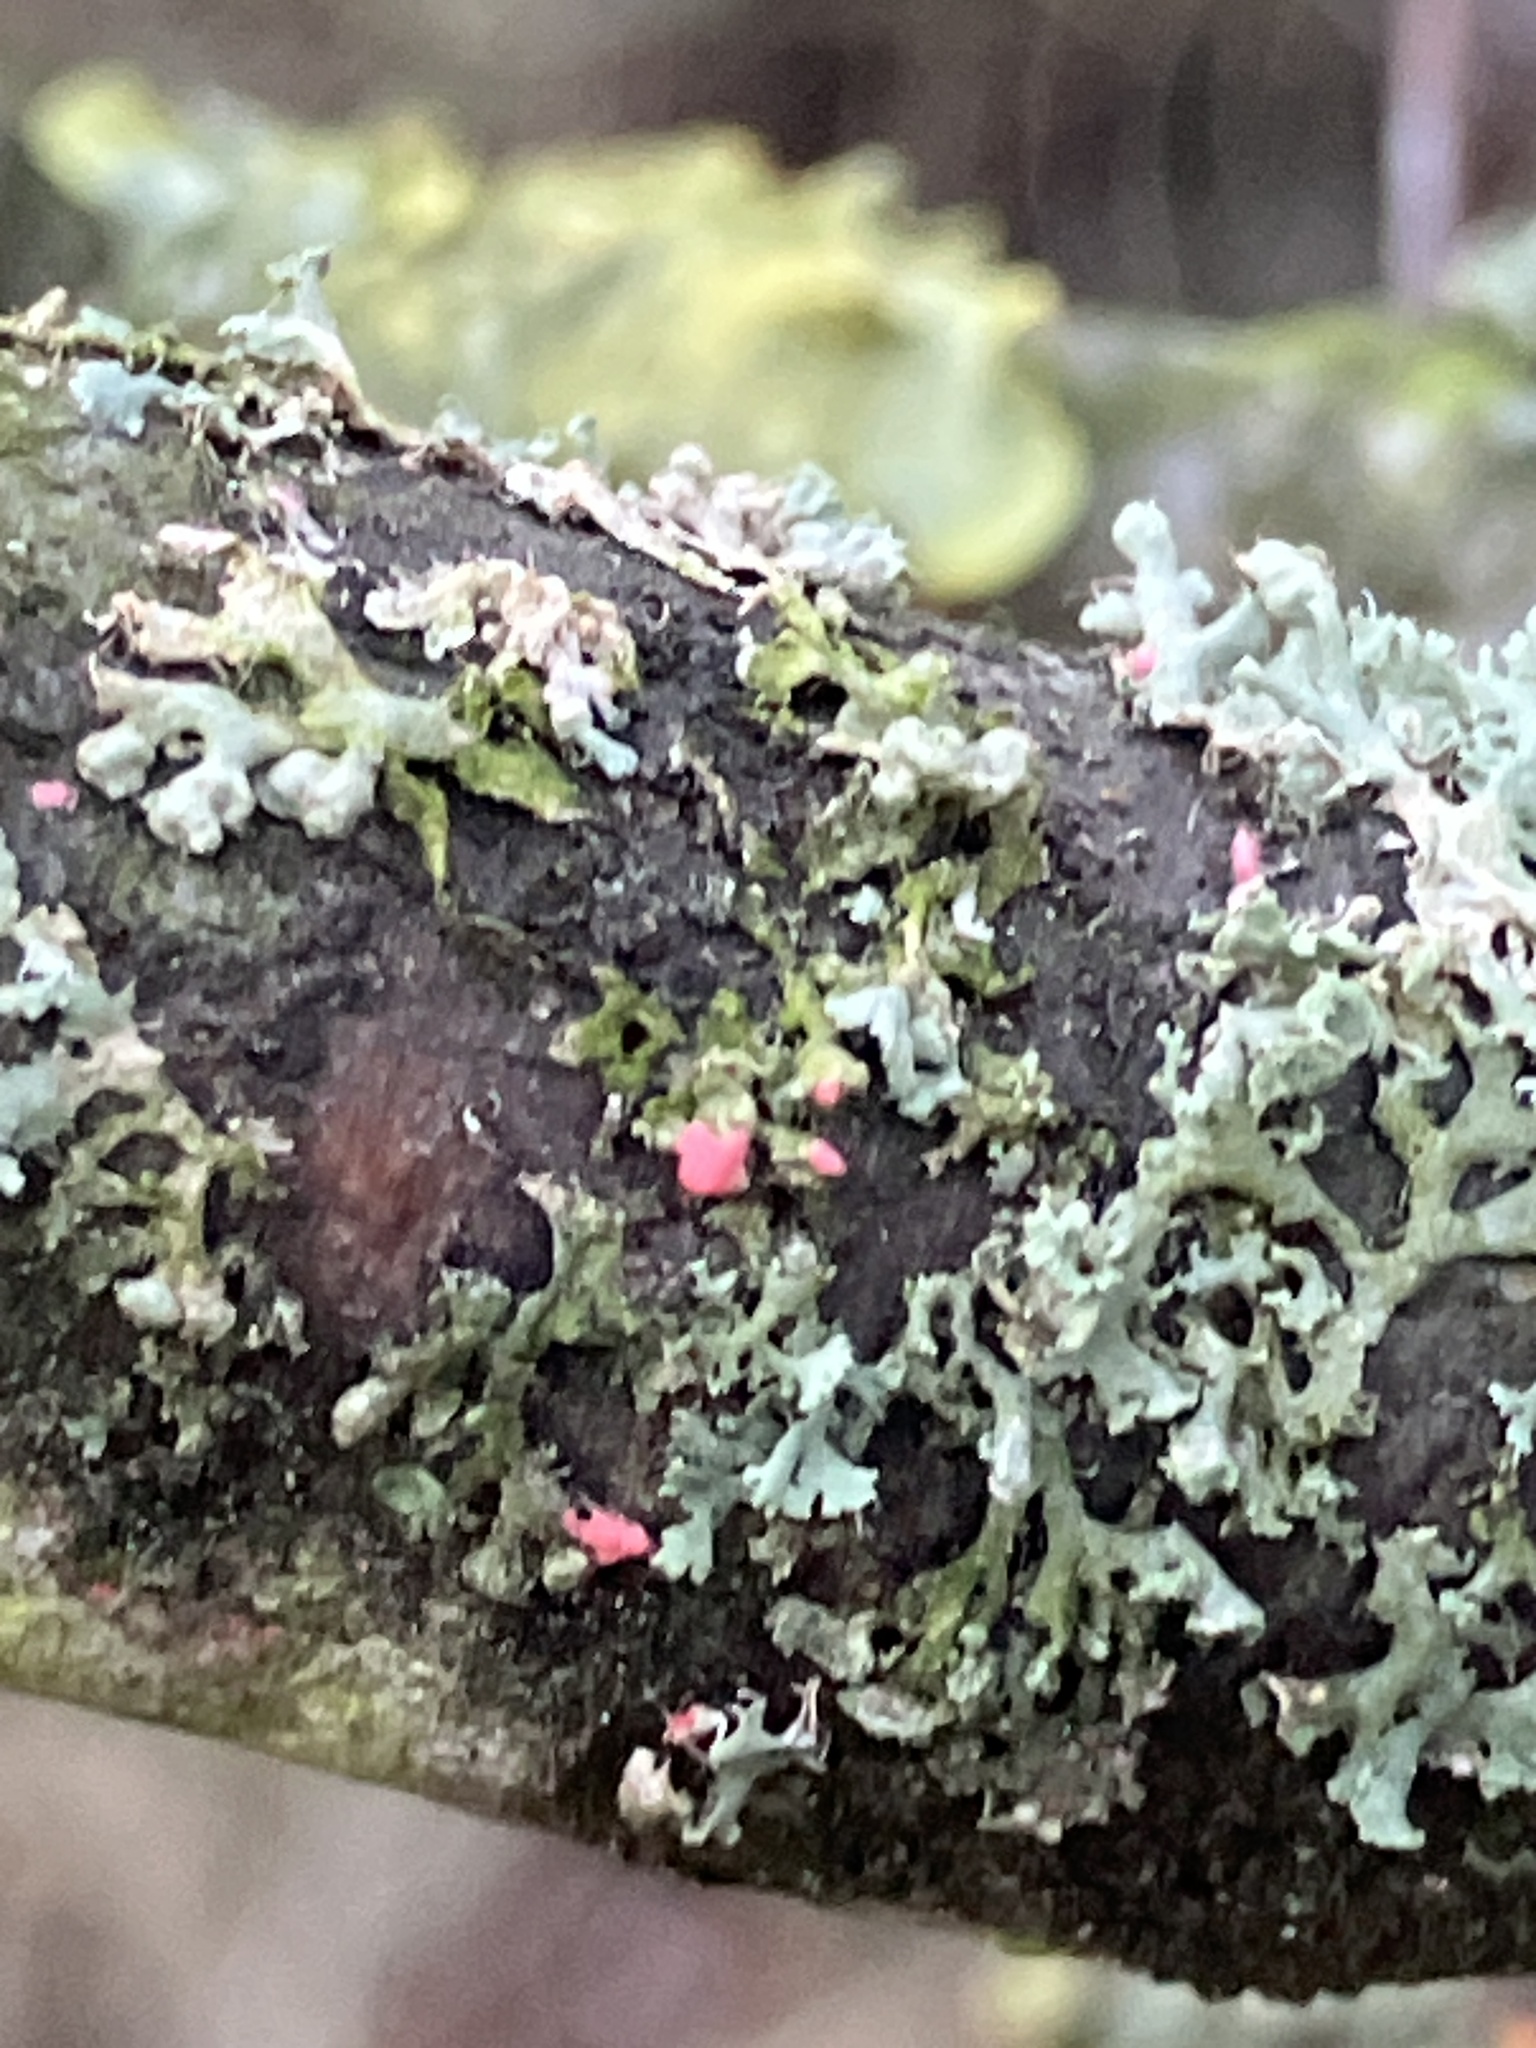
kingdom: Fungi
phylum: Ascomycota
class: Sordariomycetes
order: Hypocreales
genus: Illosporiopsis
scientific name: Illosporiopsis christiansenii
